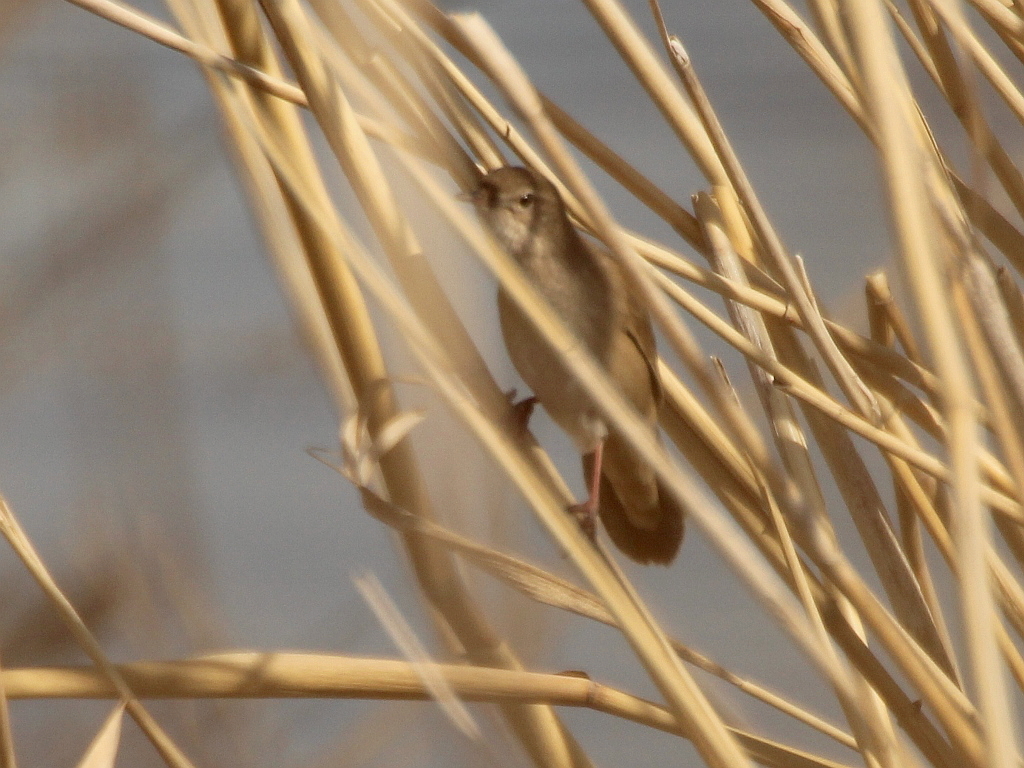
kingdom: Animalia
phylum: Chordata
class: Aves
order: Passeriformes
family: Locustellidae
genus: Locustella
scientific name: Locustella luscinioides
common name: Savi's warbler
